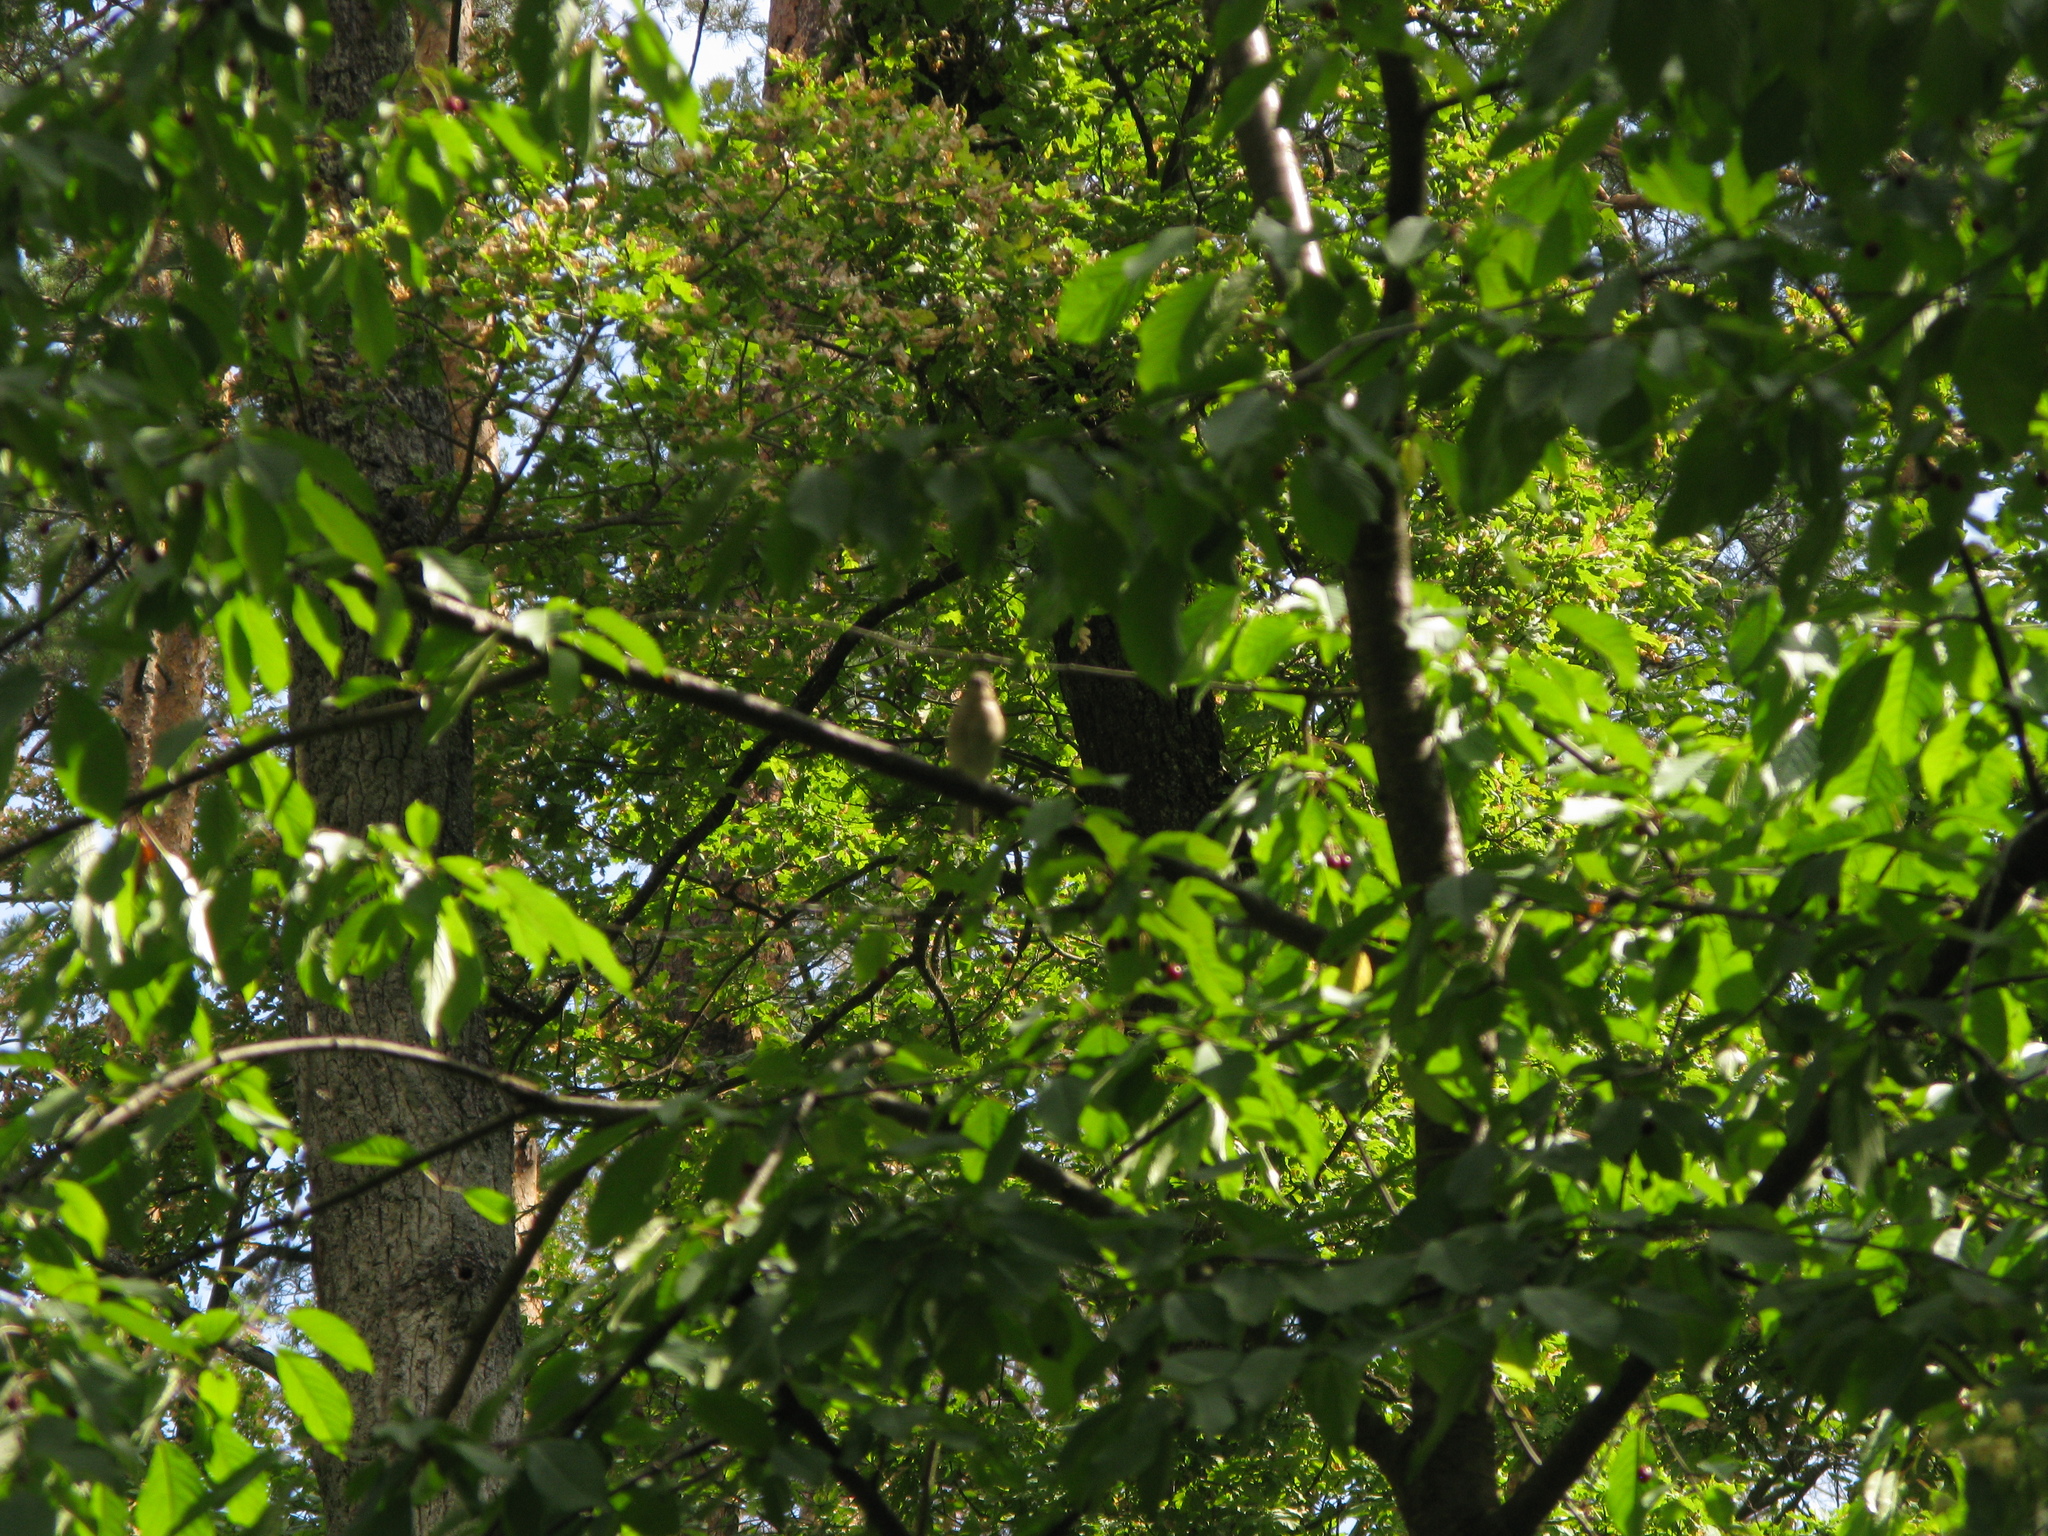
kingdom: Animalia
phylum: Chordata
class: Aves
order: Passeriformes
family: Fringillidae
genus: Fringilla
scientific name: Fringilla coelebs
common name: Common chaffinch
